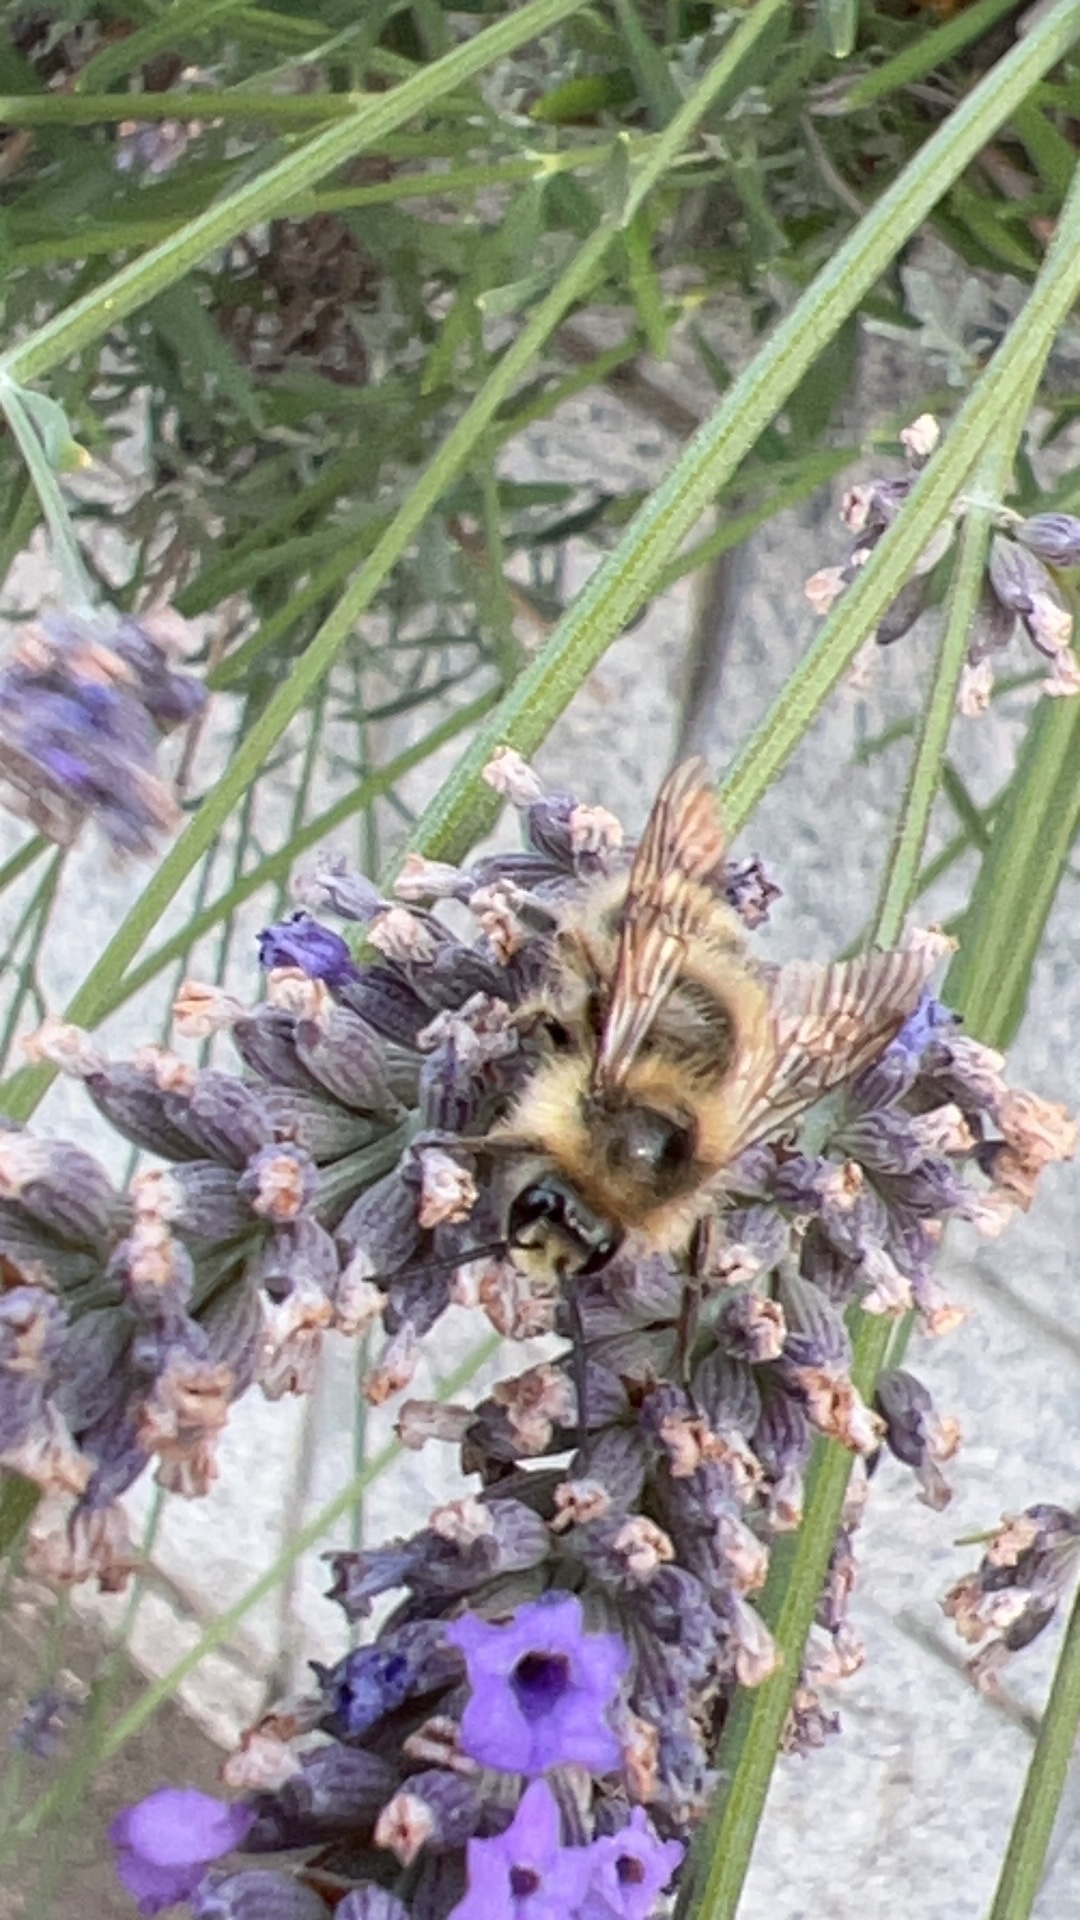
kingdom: Animalia
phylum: Arthropoda
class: Insecta
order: Hymenoptera
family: Apidae
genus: Bombus
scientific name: Bombus mixtus
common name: Fuzzy-horned bumble bee
